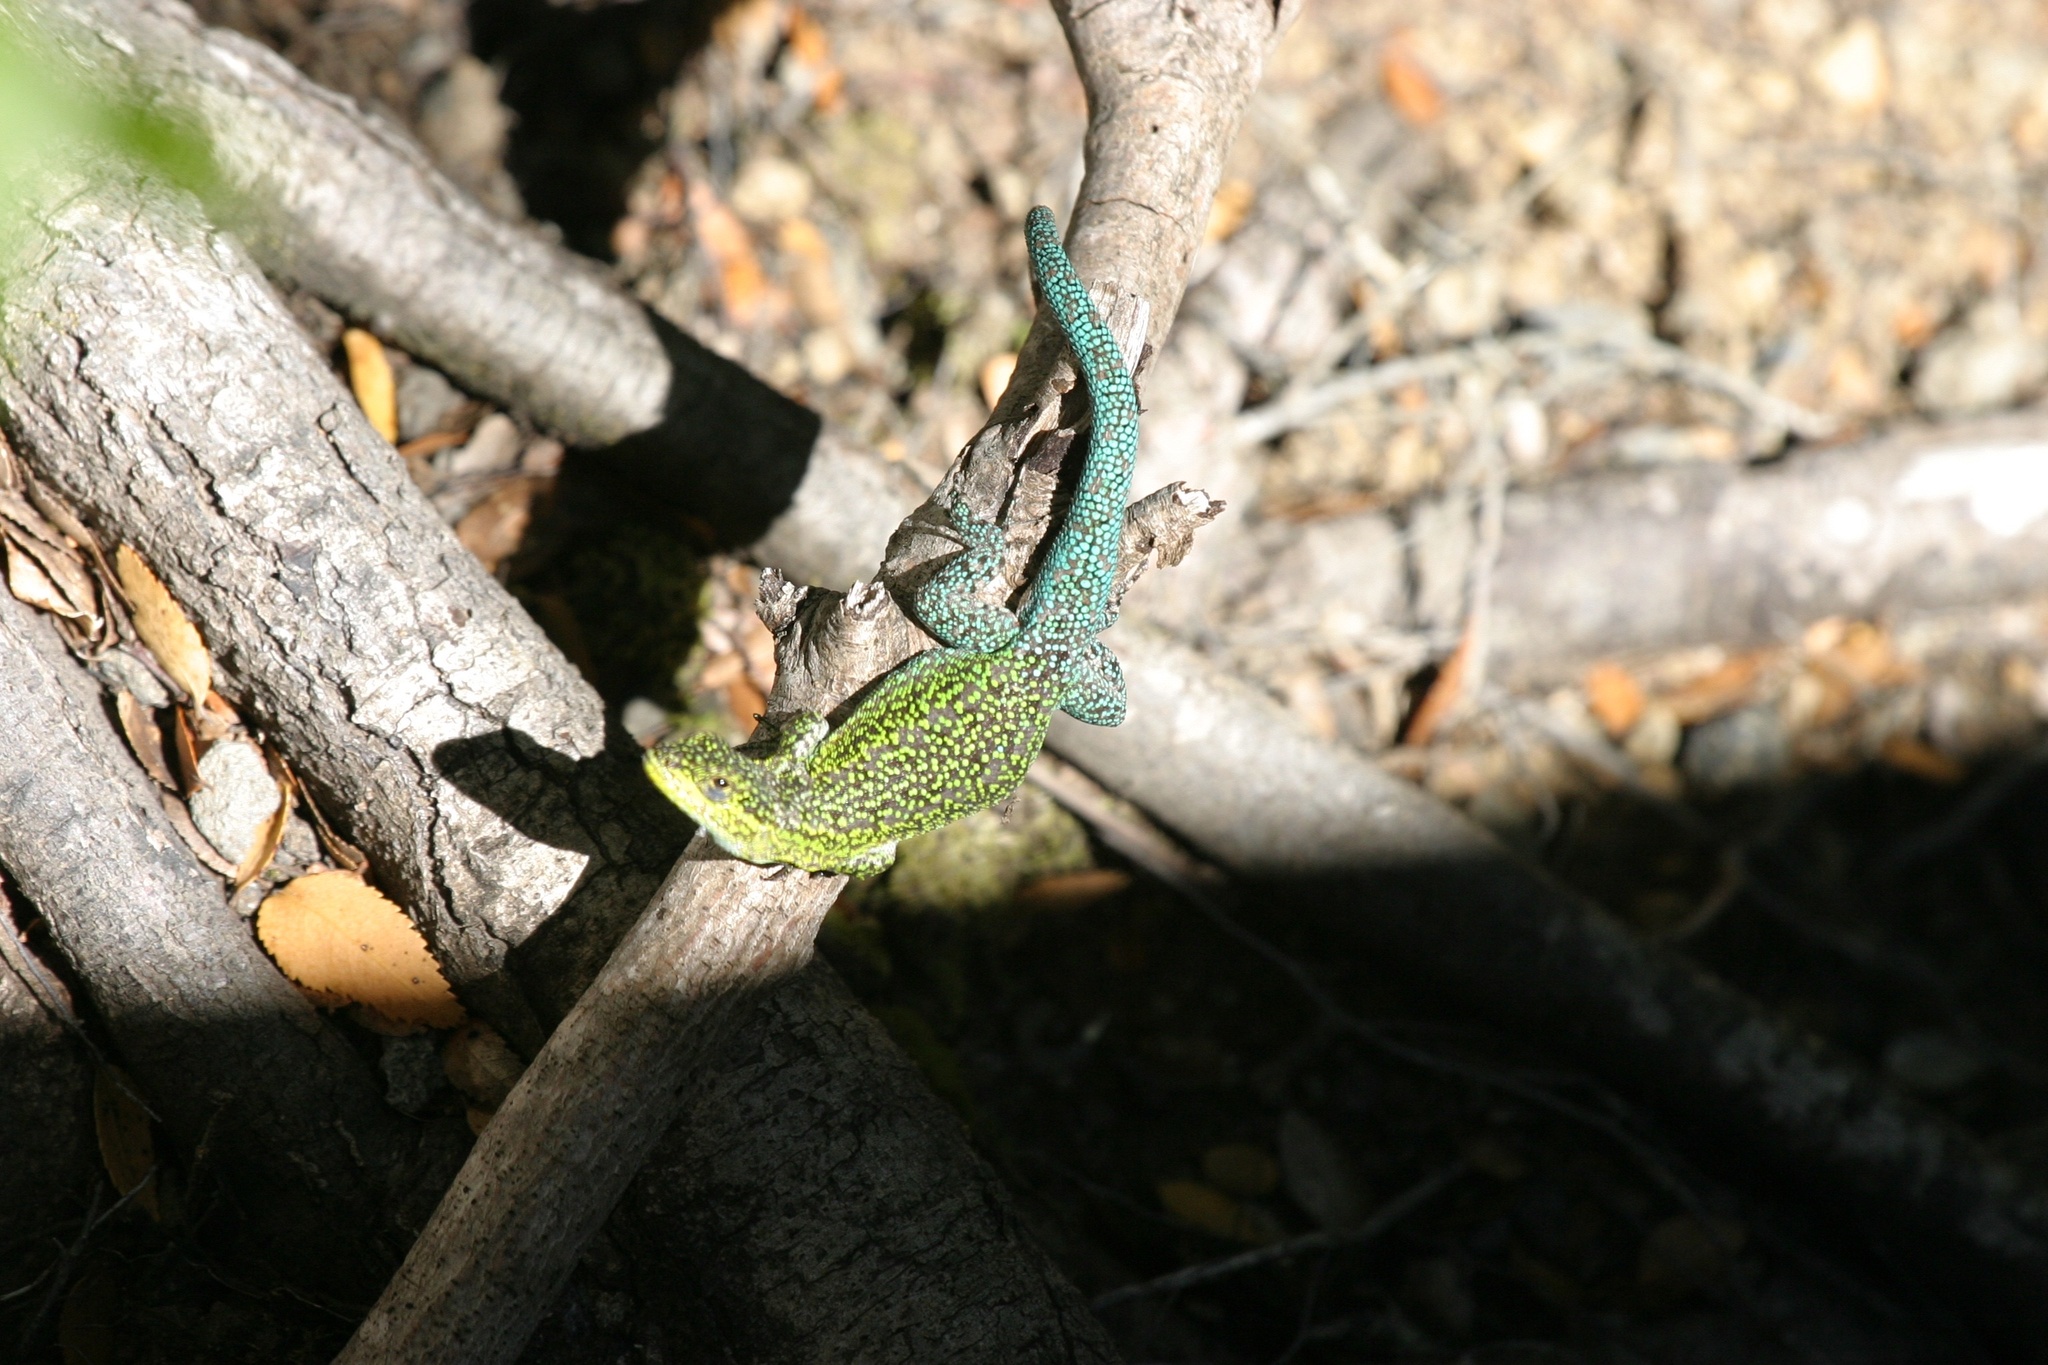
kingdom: Animalia
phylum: Chordata
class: Squamata
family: Liolaemidae
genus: Liolaemus
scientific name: Liolaemus tenuis
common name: Thin tree iguana
